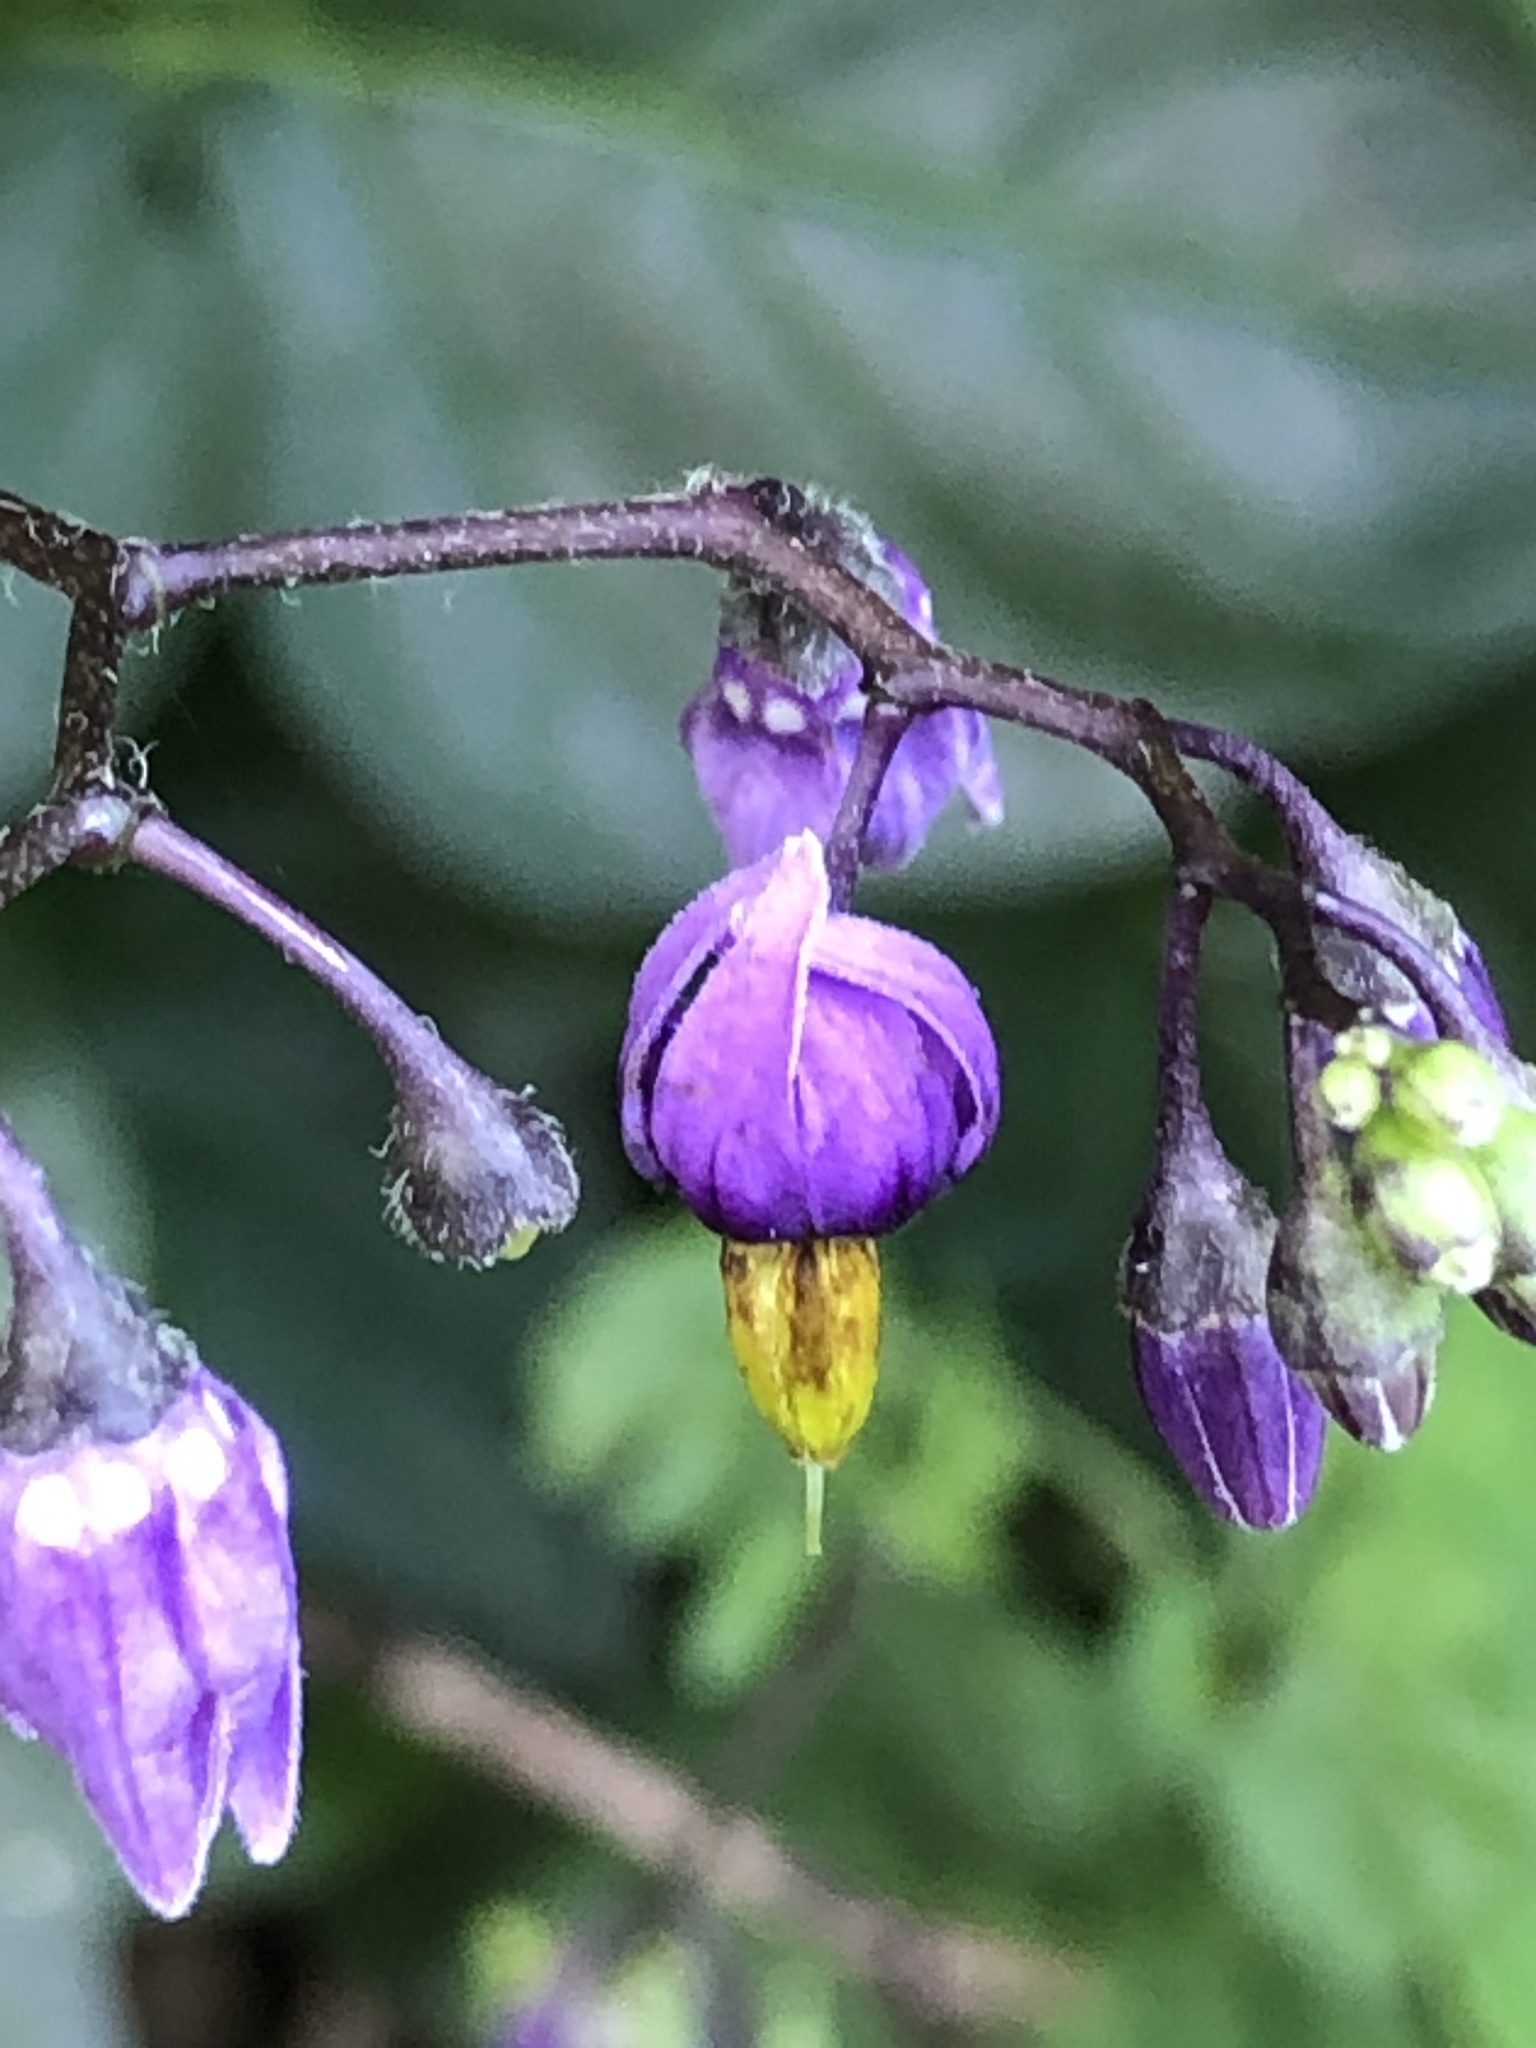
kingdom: Plantae
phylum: Tracheophyta
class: Magnoliopsida
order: Solanales
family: Solanaceae
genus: Solanum
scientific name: Solanum dulcamara
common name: Climbing nightshade
